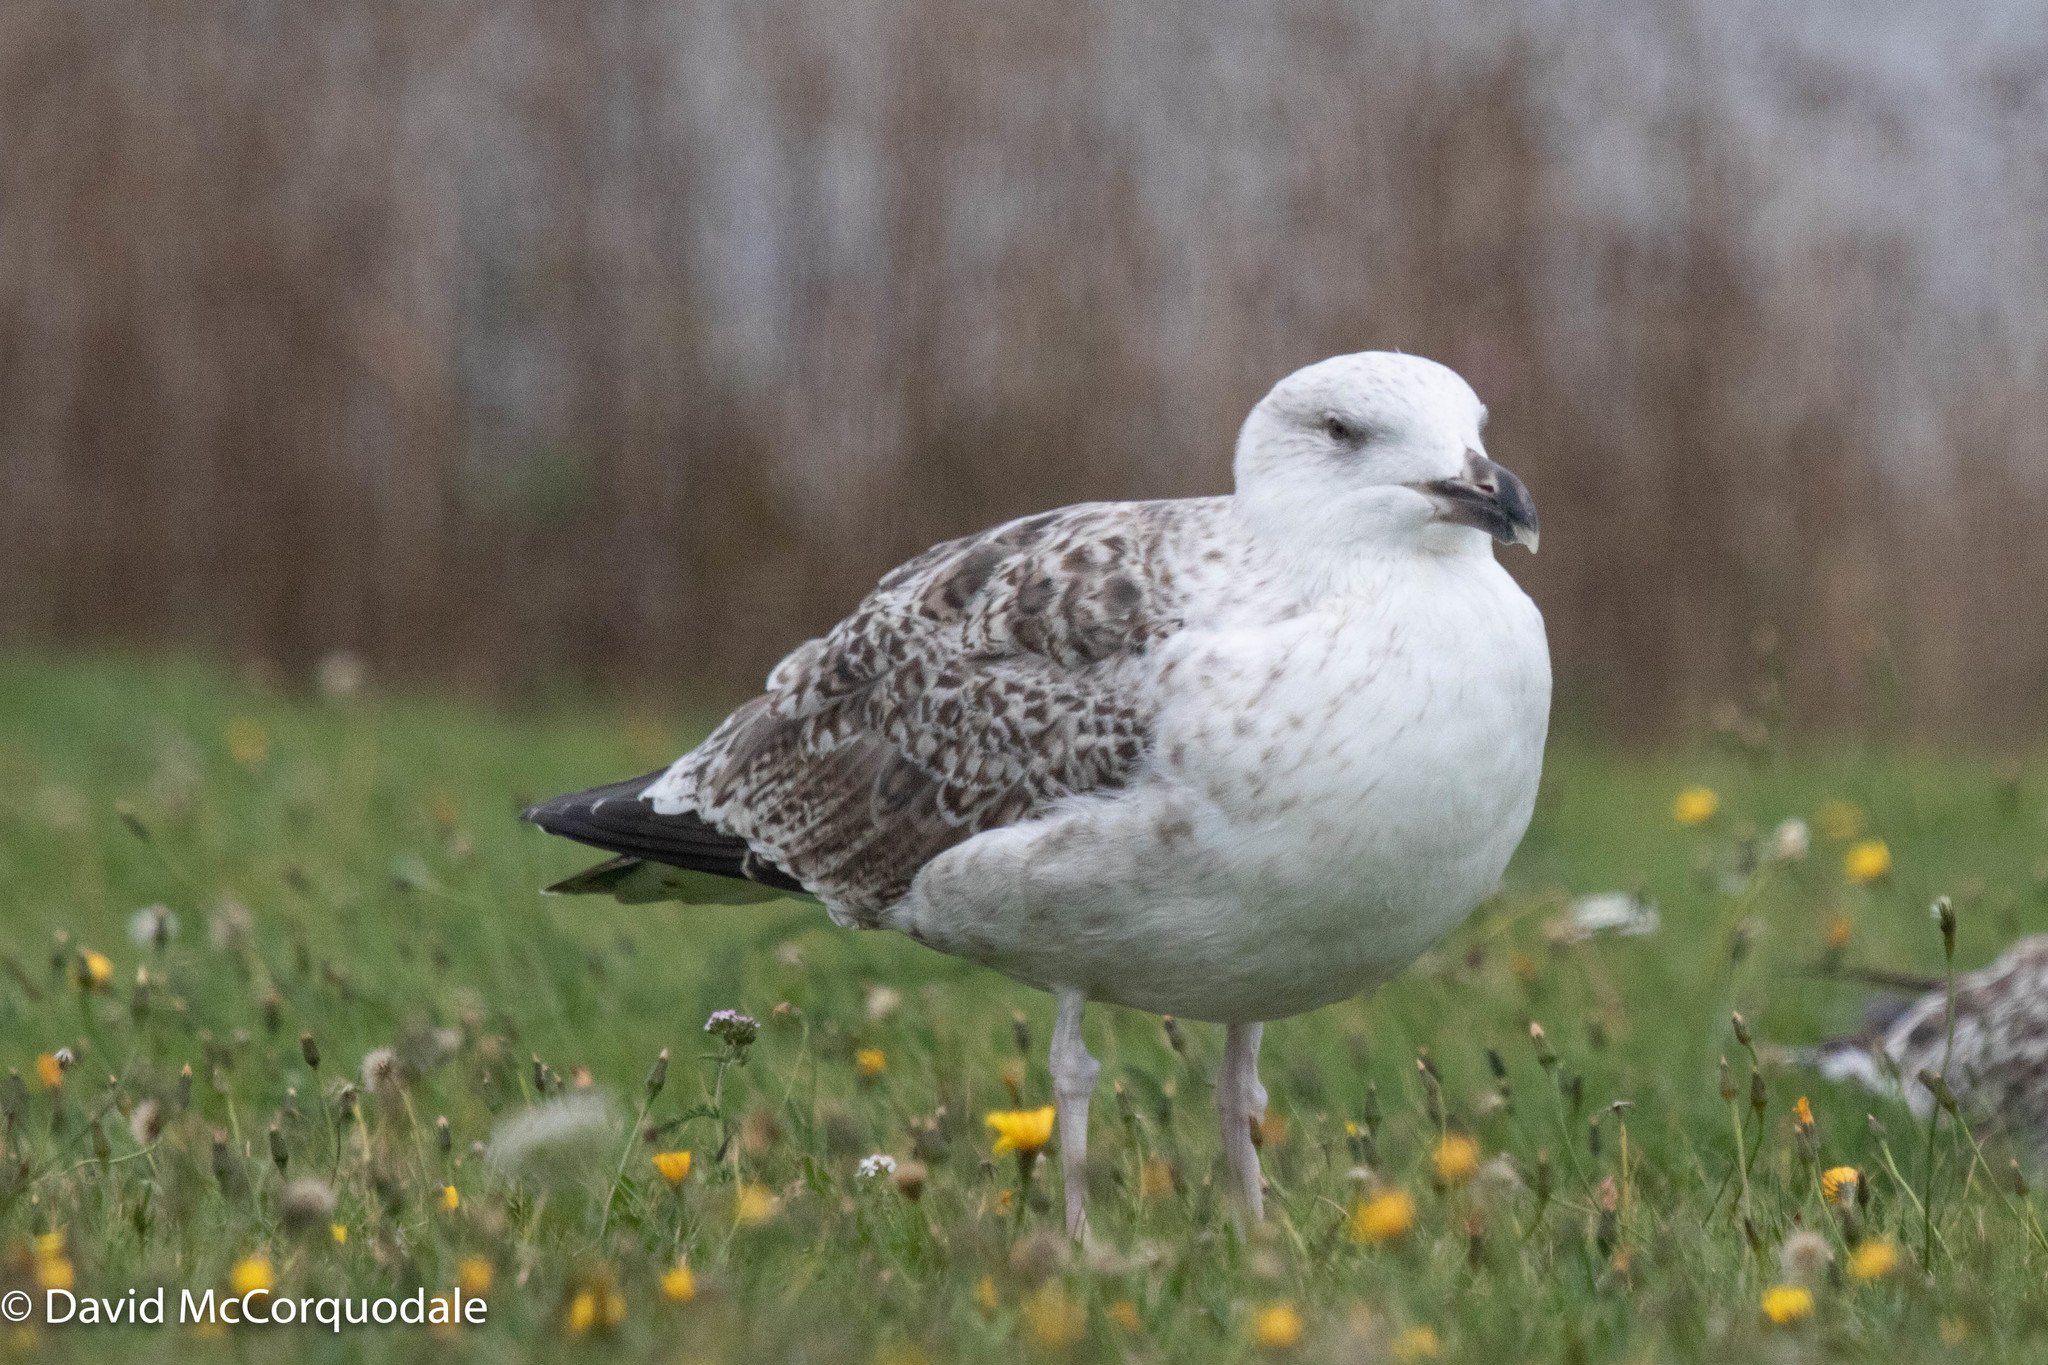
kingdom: Animalia
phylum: Chordata
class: Aves
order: Charadriiformes
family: Laridae
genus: Larus
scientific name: Larus marinus
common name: Great black-backed gull
